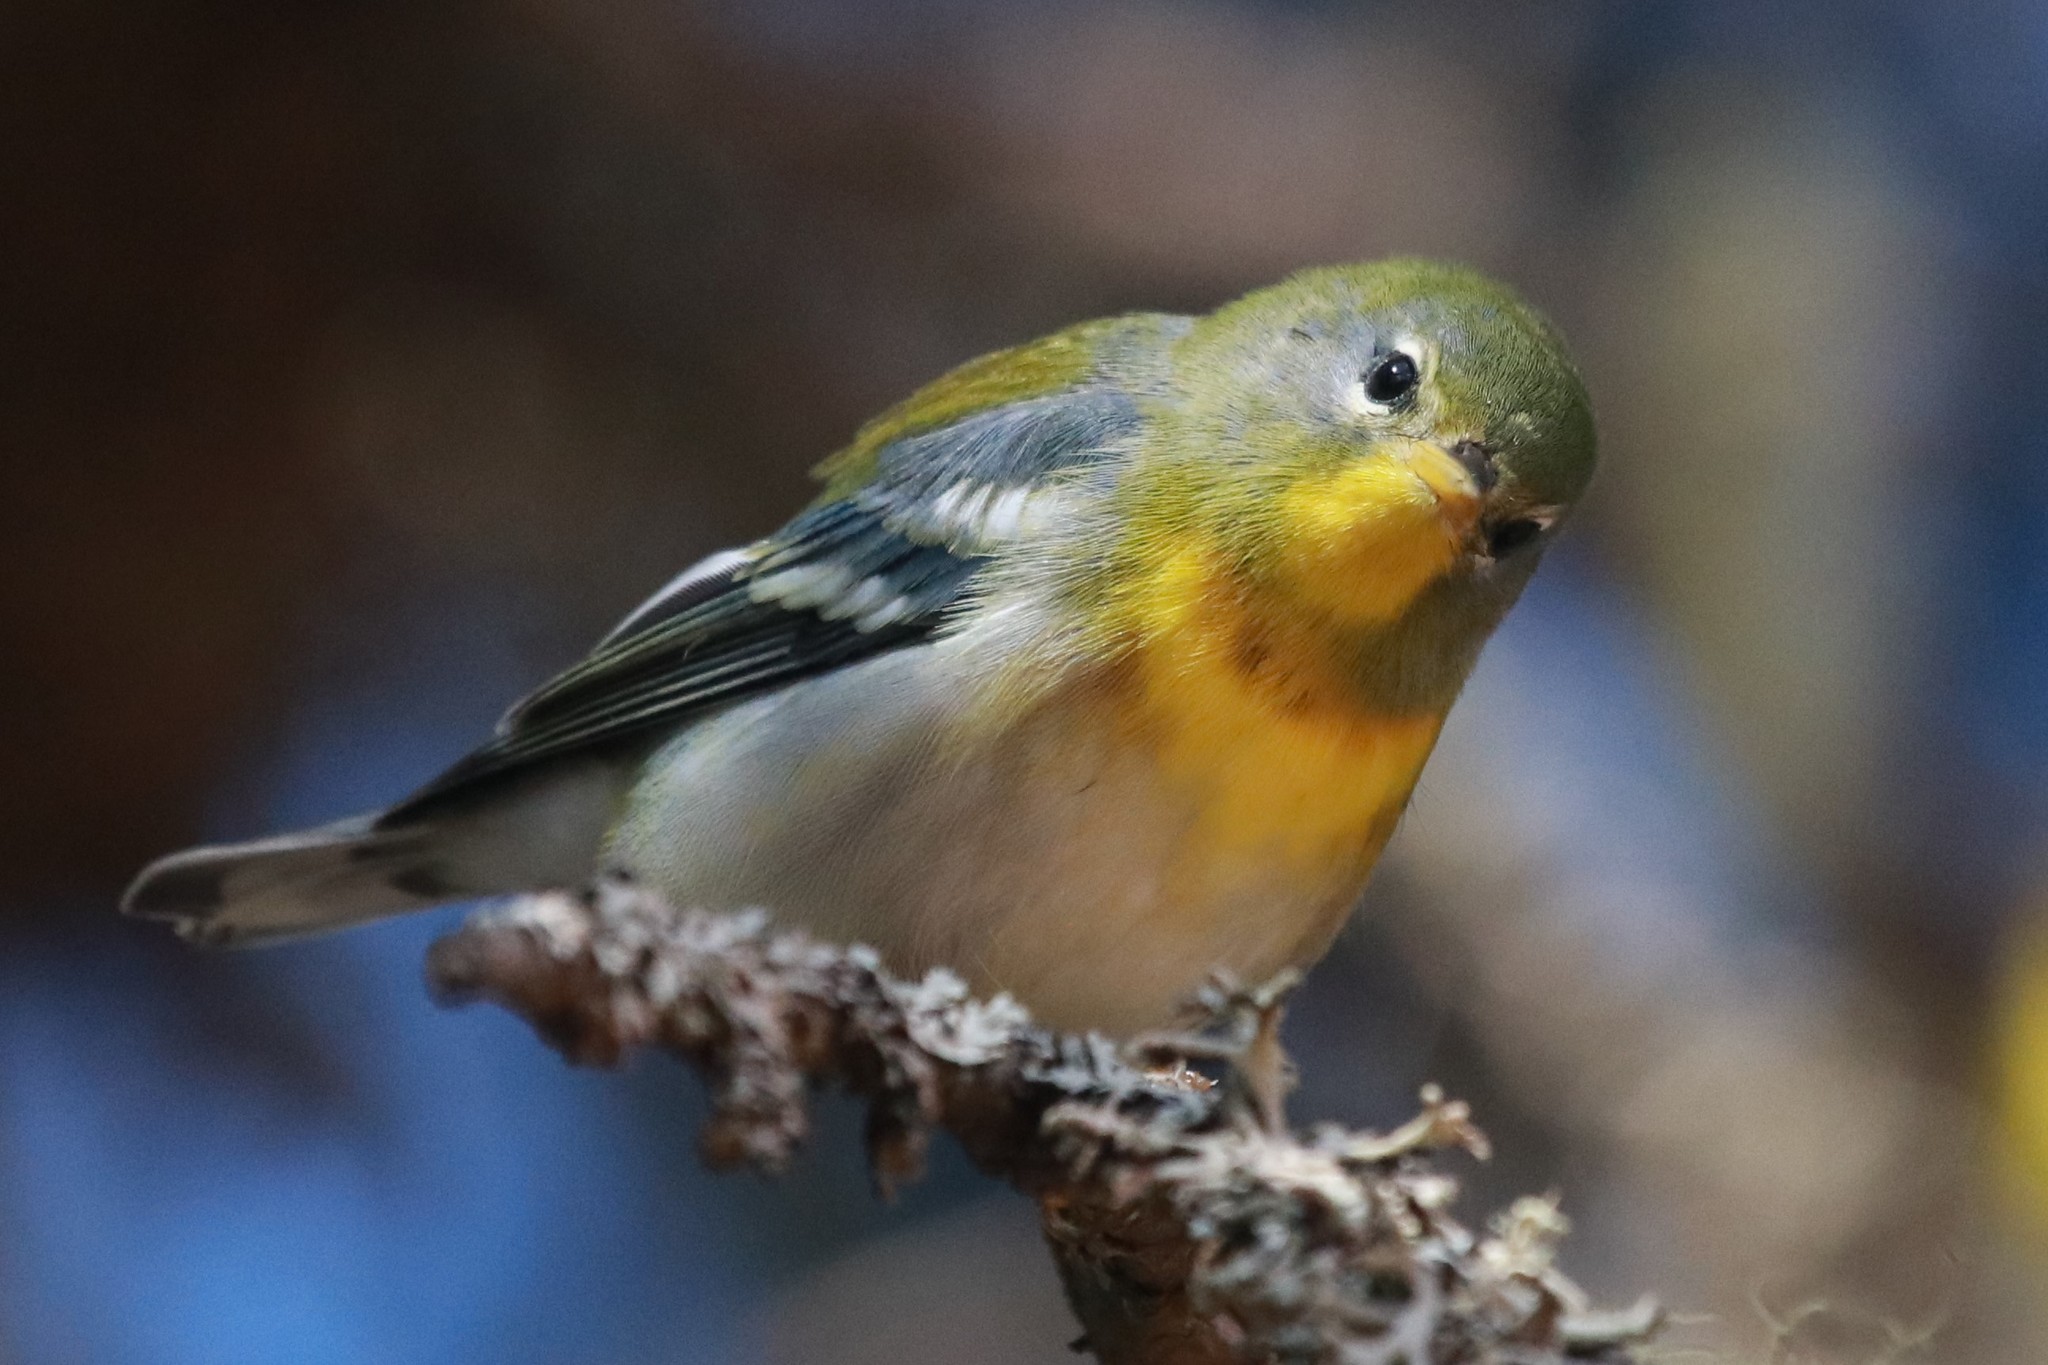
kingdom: Animalia
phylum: Chordata
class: Aves
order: Passeriformes
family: Parulidae
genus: Setophaga
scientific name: Setophaga americana
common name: Northern parula
